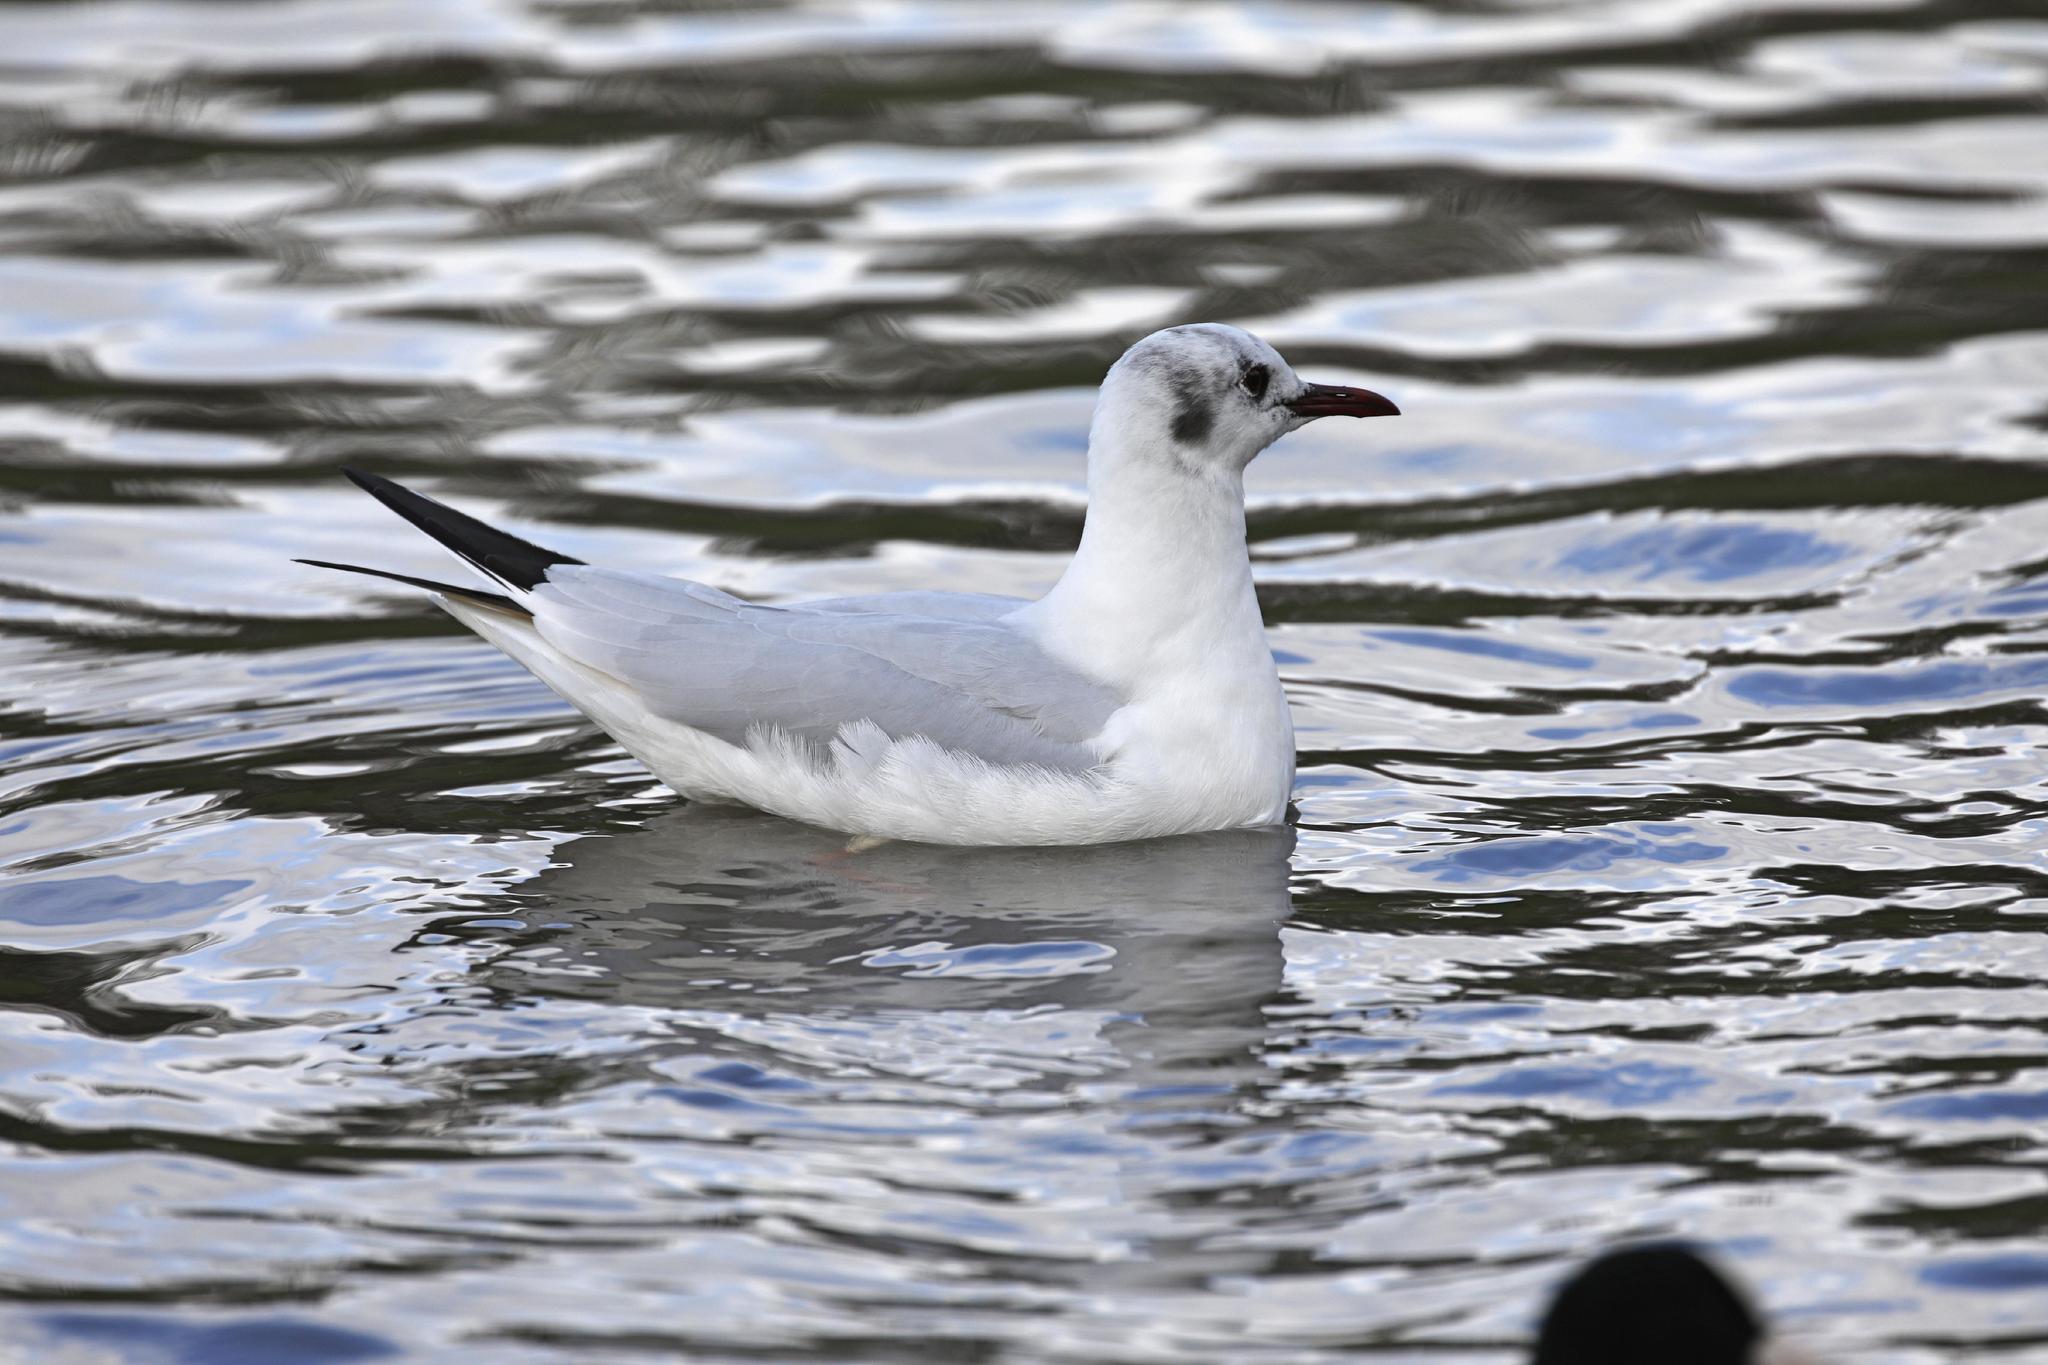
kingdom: Animalia
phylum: Chordata
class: Aves
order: Charadriiformes
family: Laridae
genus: Chroicocephalus
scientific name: Chroicocephalus ridibundus
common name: Black-headed gull
